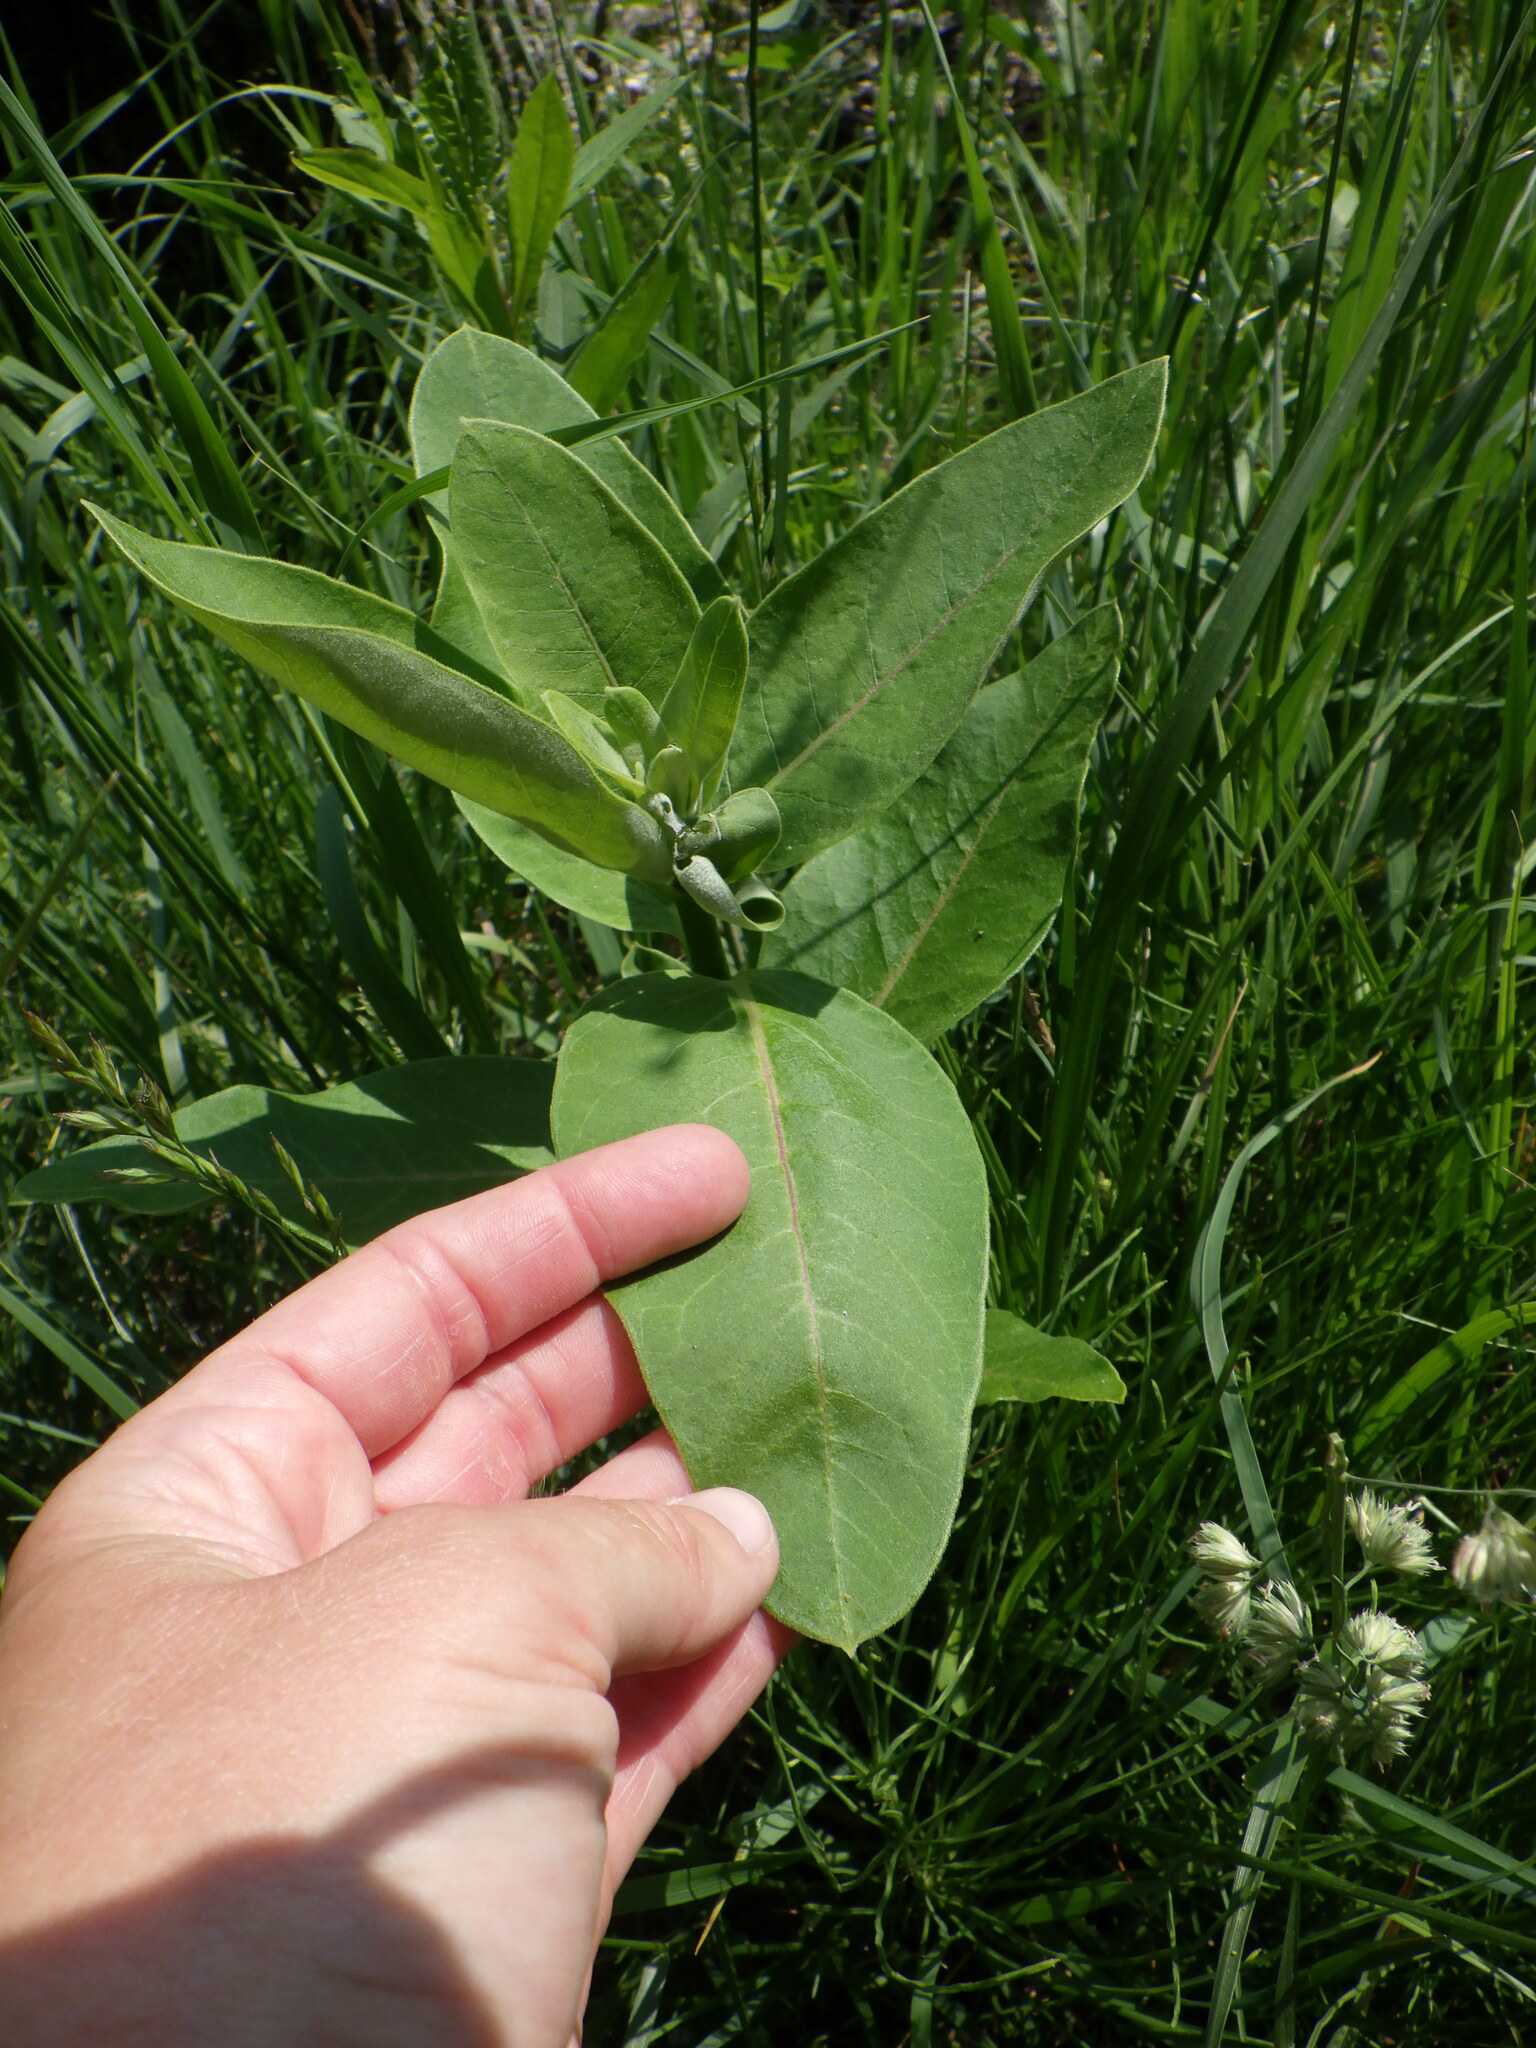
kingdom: Plantae
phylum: Tracheophyta
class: Magnoliopsida
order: Gentianales
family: Apocynaceae
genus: Asclepias
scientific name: Asclepias syriaca
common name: Common milkweed
